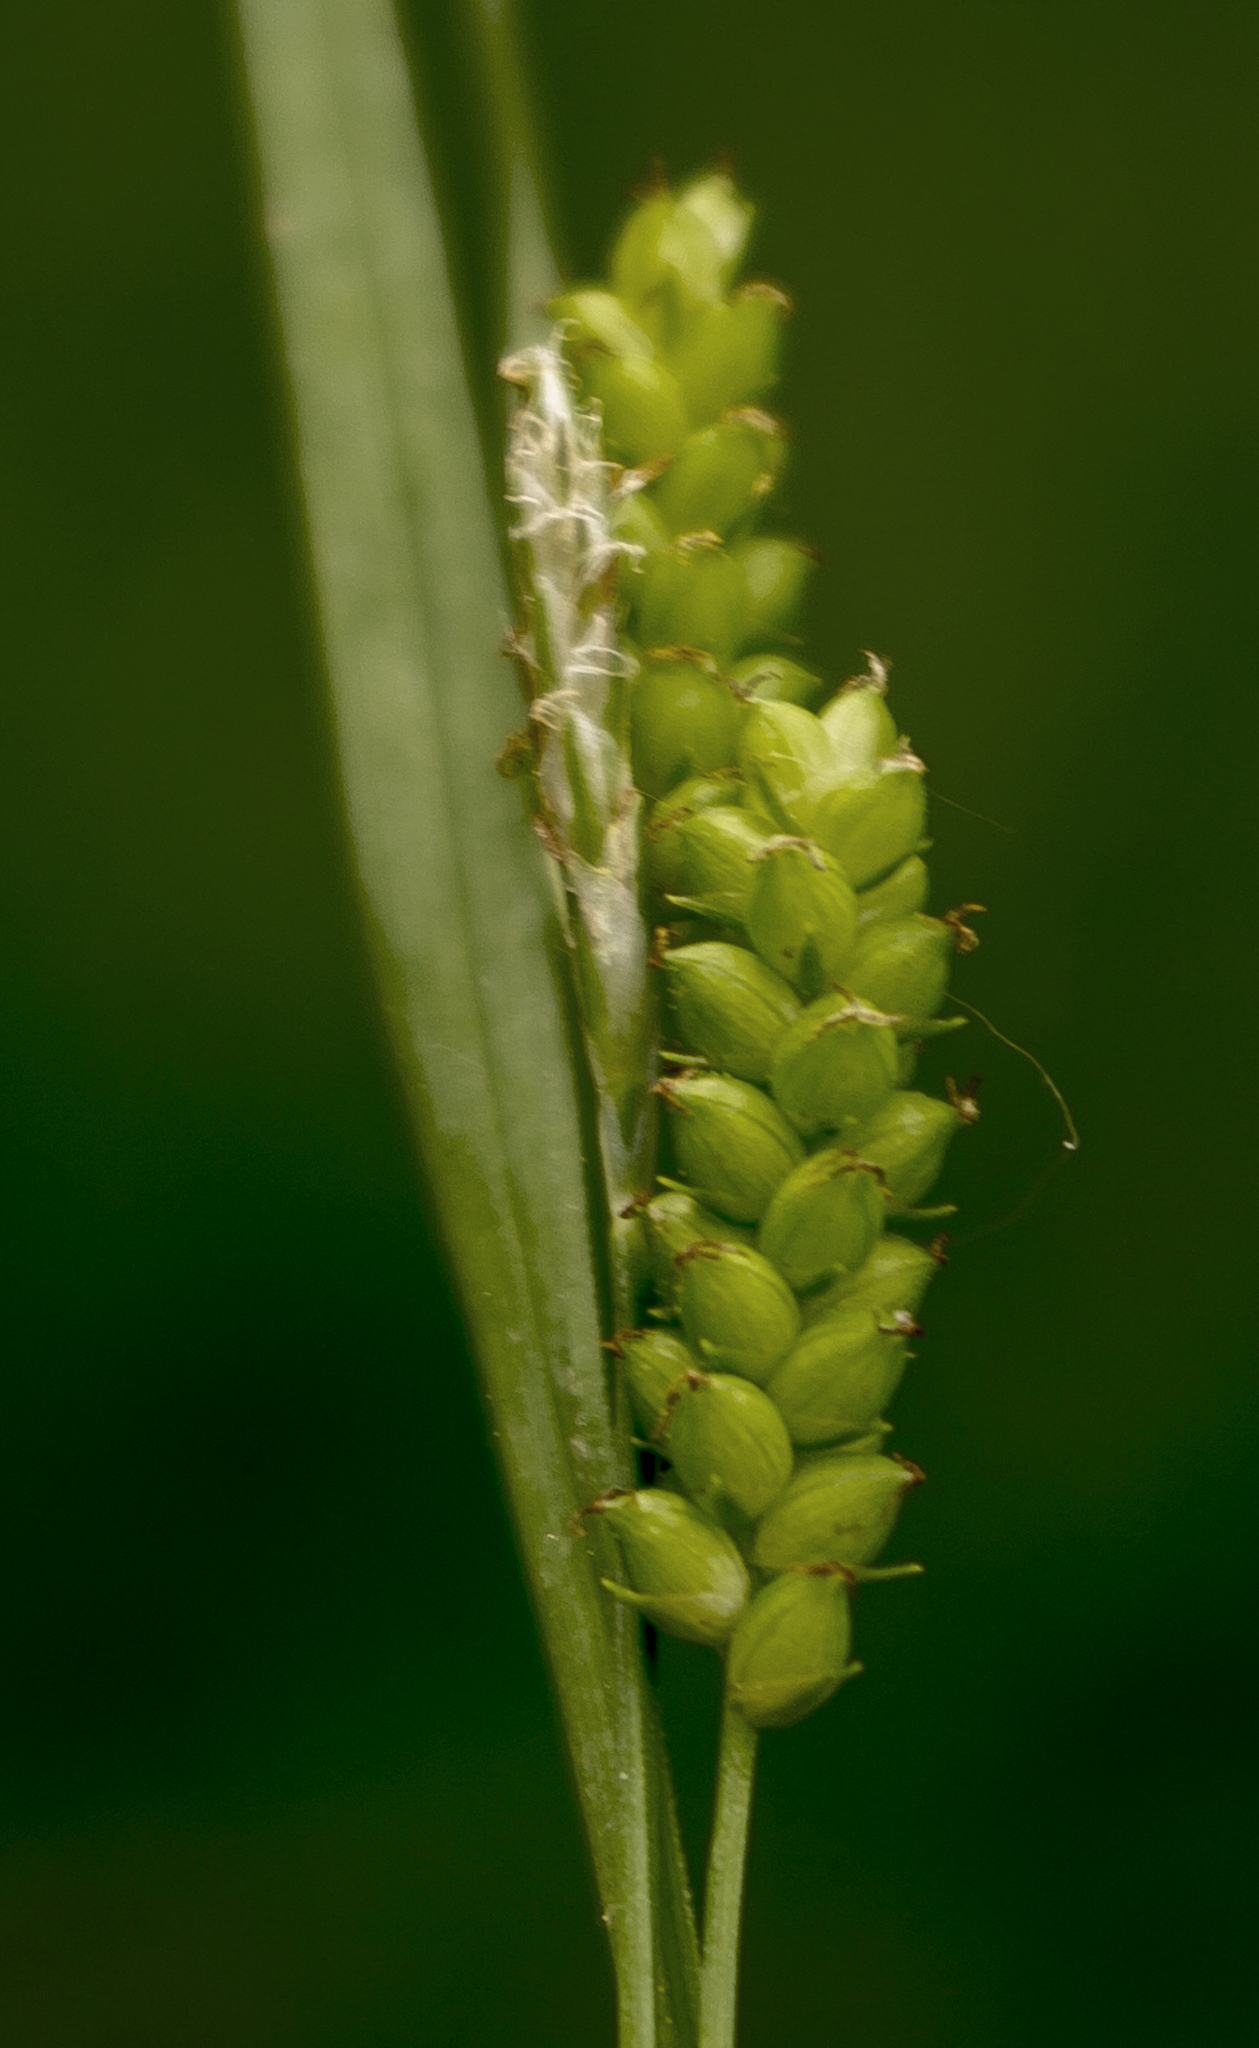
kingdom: Plantae
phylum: Tracheophyta
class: Liliopsida
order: Poales
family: Cyperaceae
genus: Carex
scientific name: Carex granularis
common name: Granular sedge
